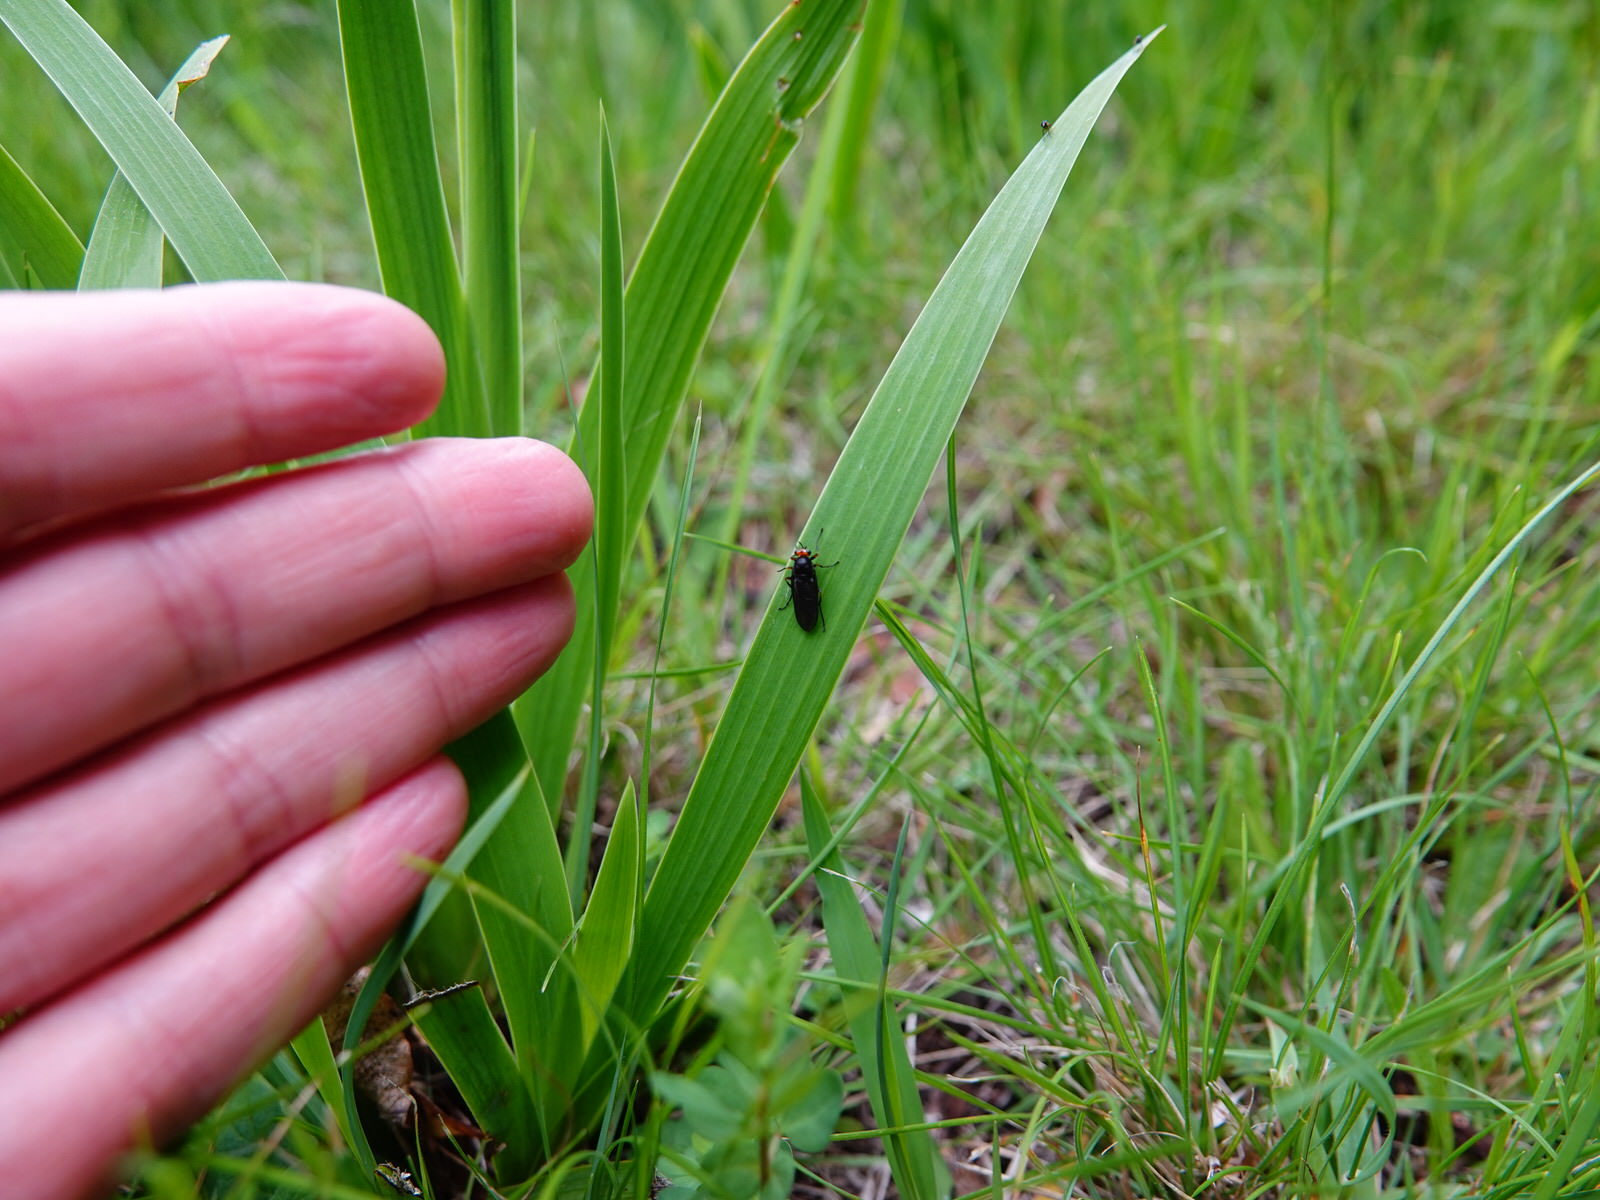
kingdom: Animalia
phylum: Arthropoda
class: Insecta
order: Diptera
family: Stratiomyidae
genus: Inopus
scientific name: Inopus rubriceps
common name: Soldier fly
